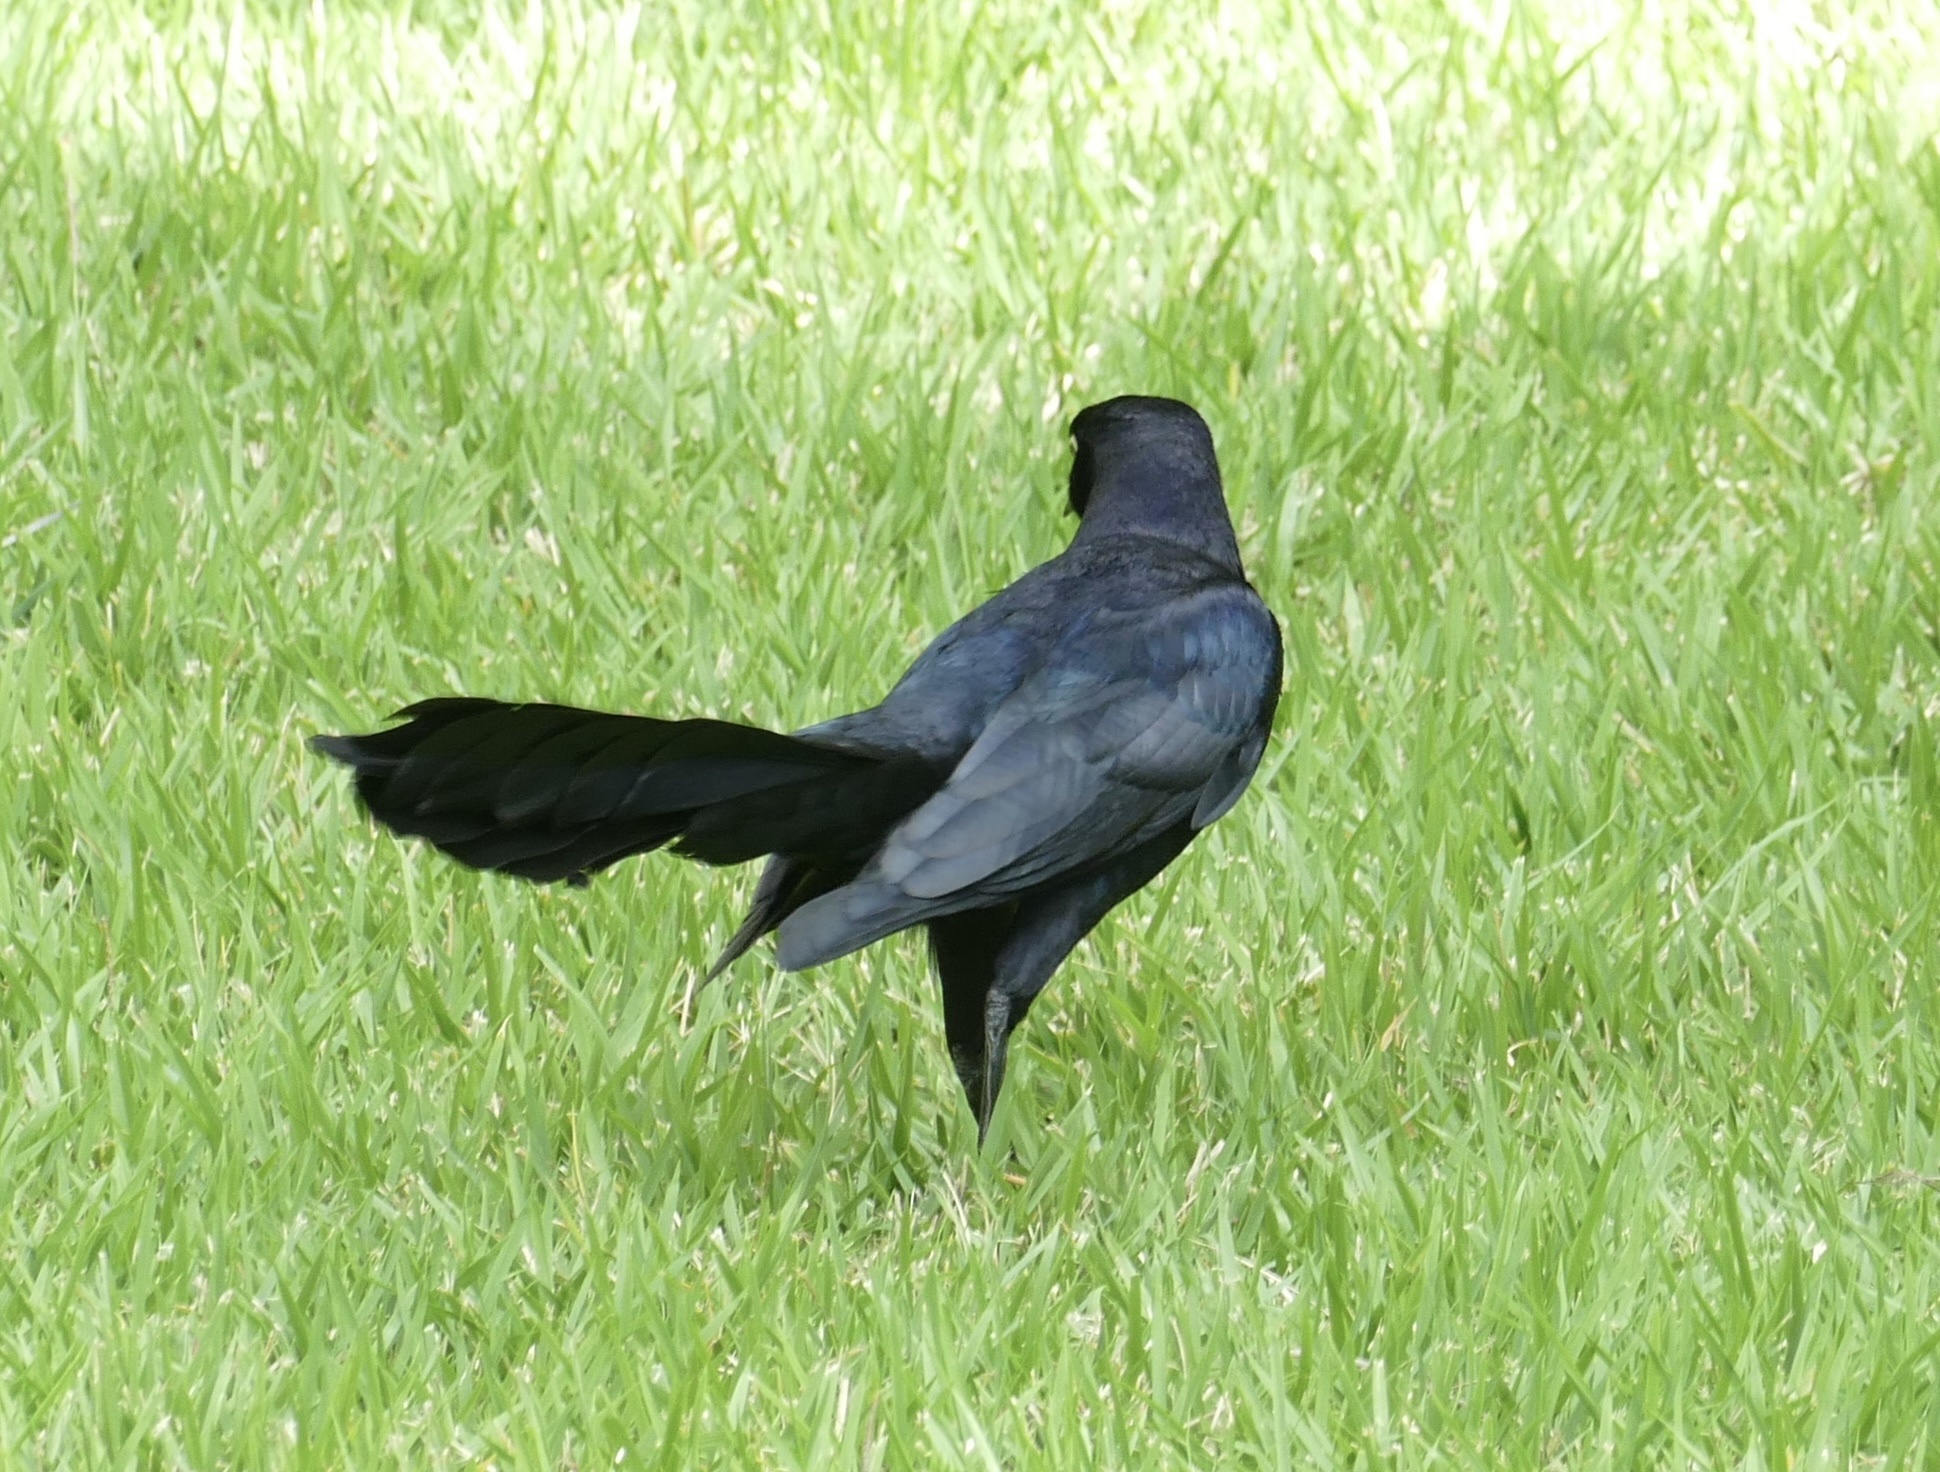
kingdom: Animalia
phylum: Chordata
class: Aves
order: Passeriformes
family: Icteridae
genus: Quiscalus
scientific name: Quiscalus mexicanus
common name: Great-tailed grackle
